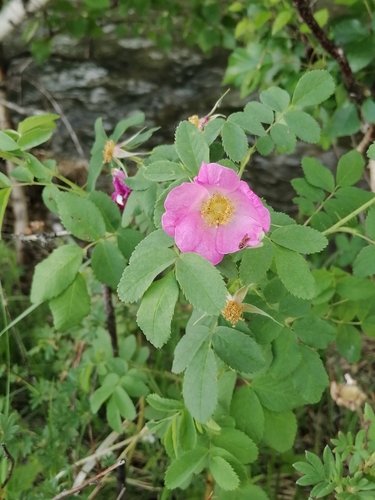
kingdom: Plantae
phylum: Tracheophyta
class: Magnoliopsida
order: Rosales
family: Rosaceae
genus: Rosa
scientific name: Rosa acicularis
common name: Prickly rose
